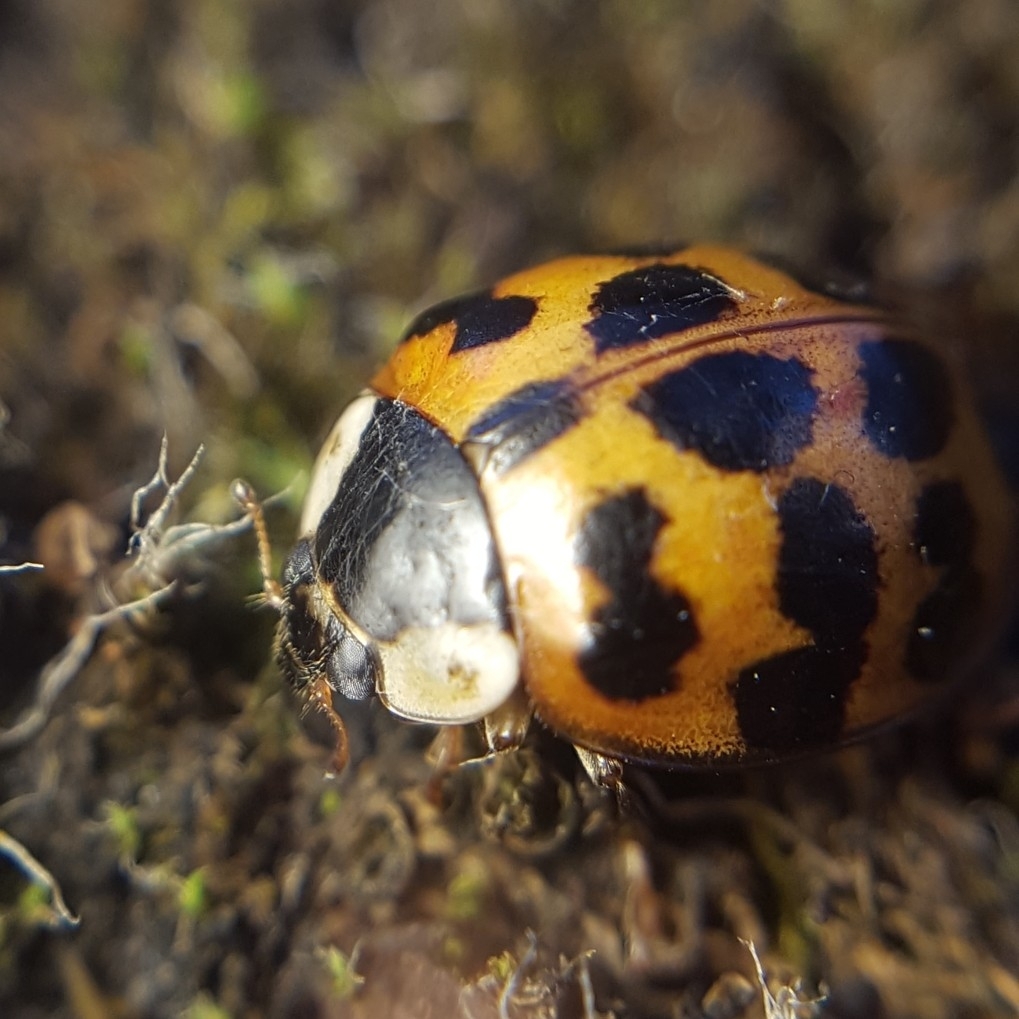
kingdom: Animalia
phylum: Arthropoda
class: Insecta
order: Coleoptera
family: Coccinellidae
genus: Harmonia
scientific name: Harmonia axyridis
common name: Harlequin ladybird
